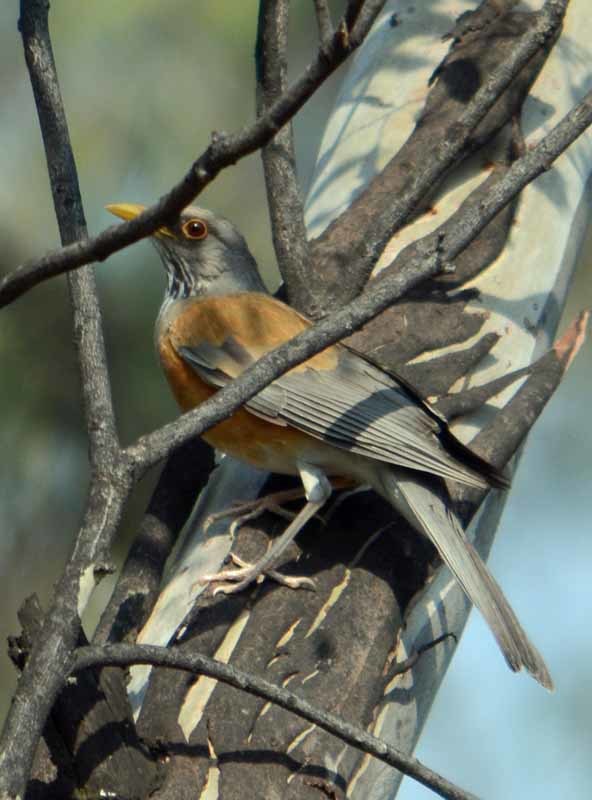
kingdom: Animalia
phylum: Chordata
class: Aves
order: Passeriformes
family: Turdidae
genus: Turdus
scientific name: Turdus rufopalliatus
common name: Rufous-backed robin
